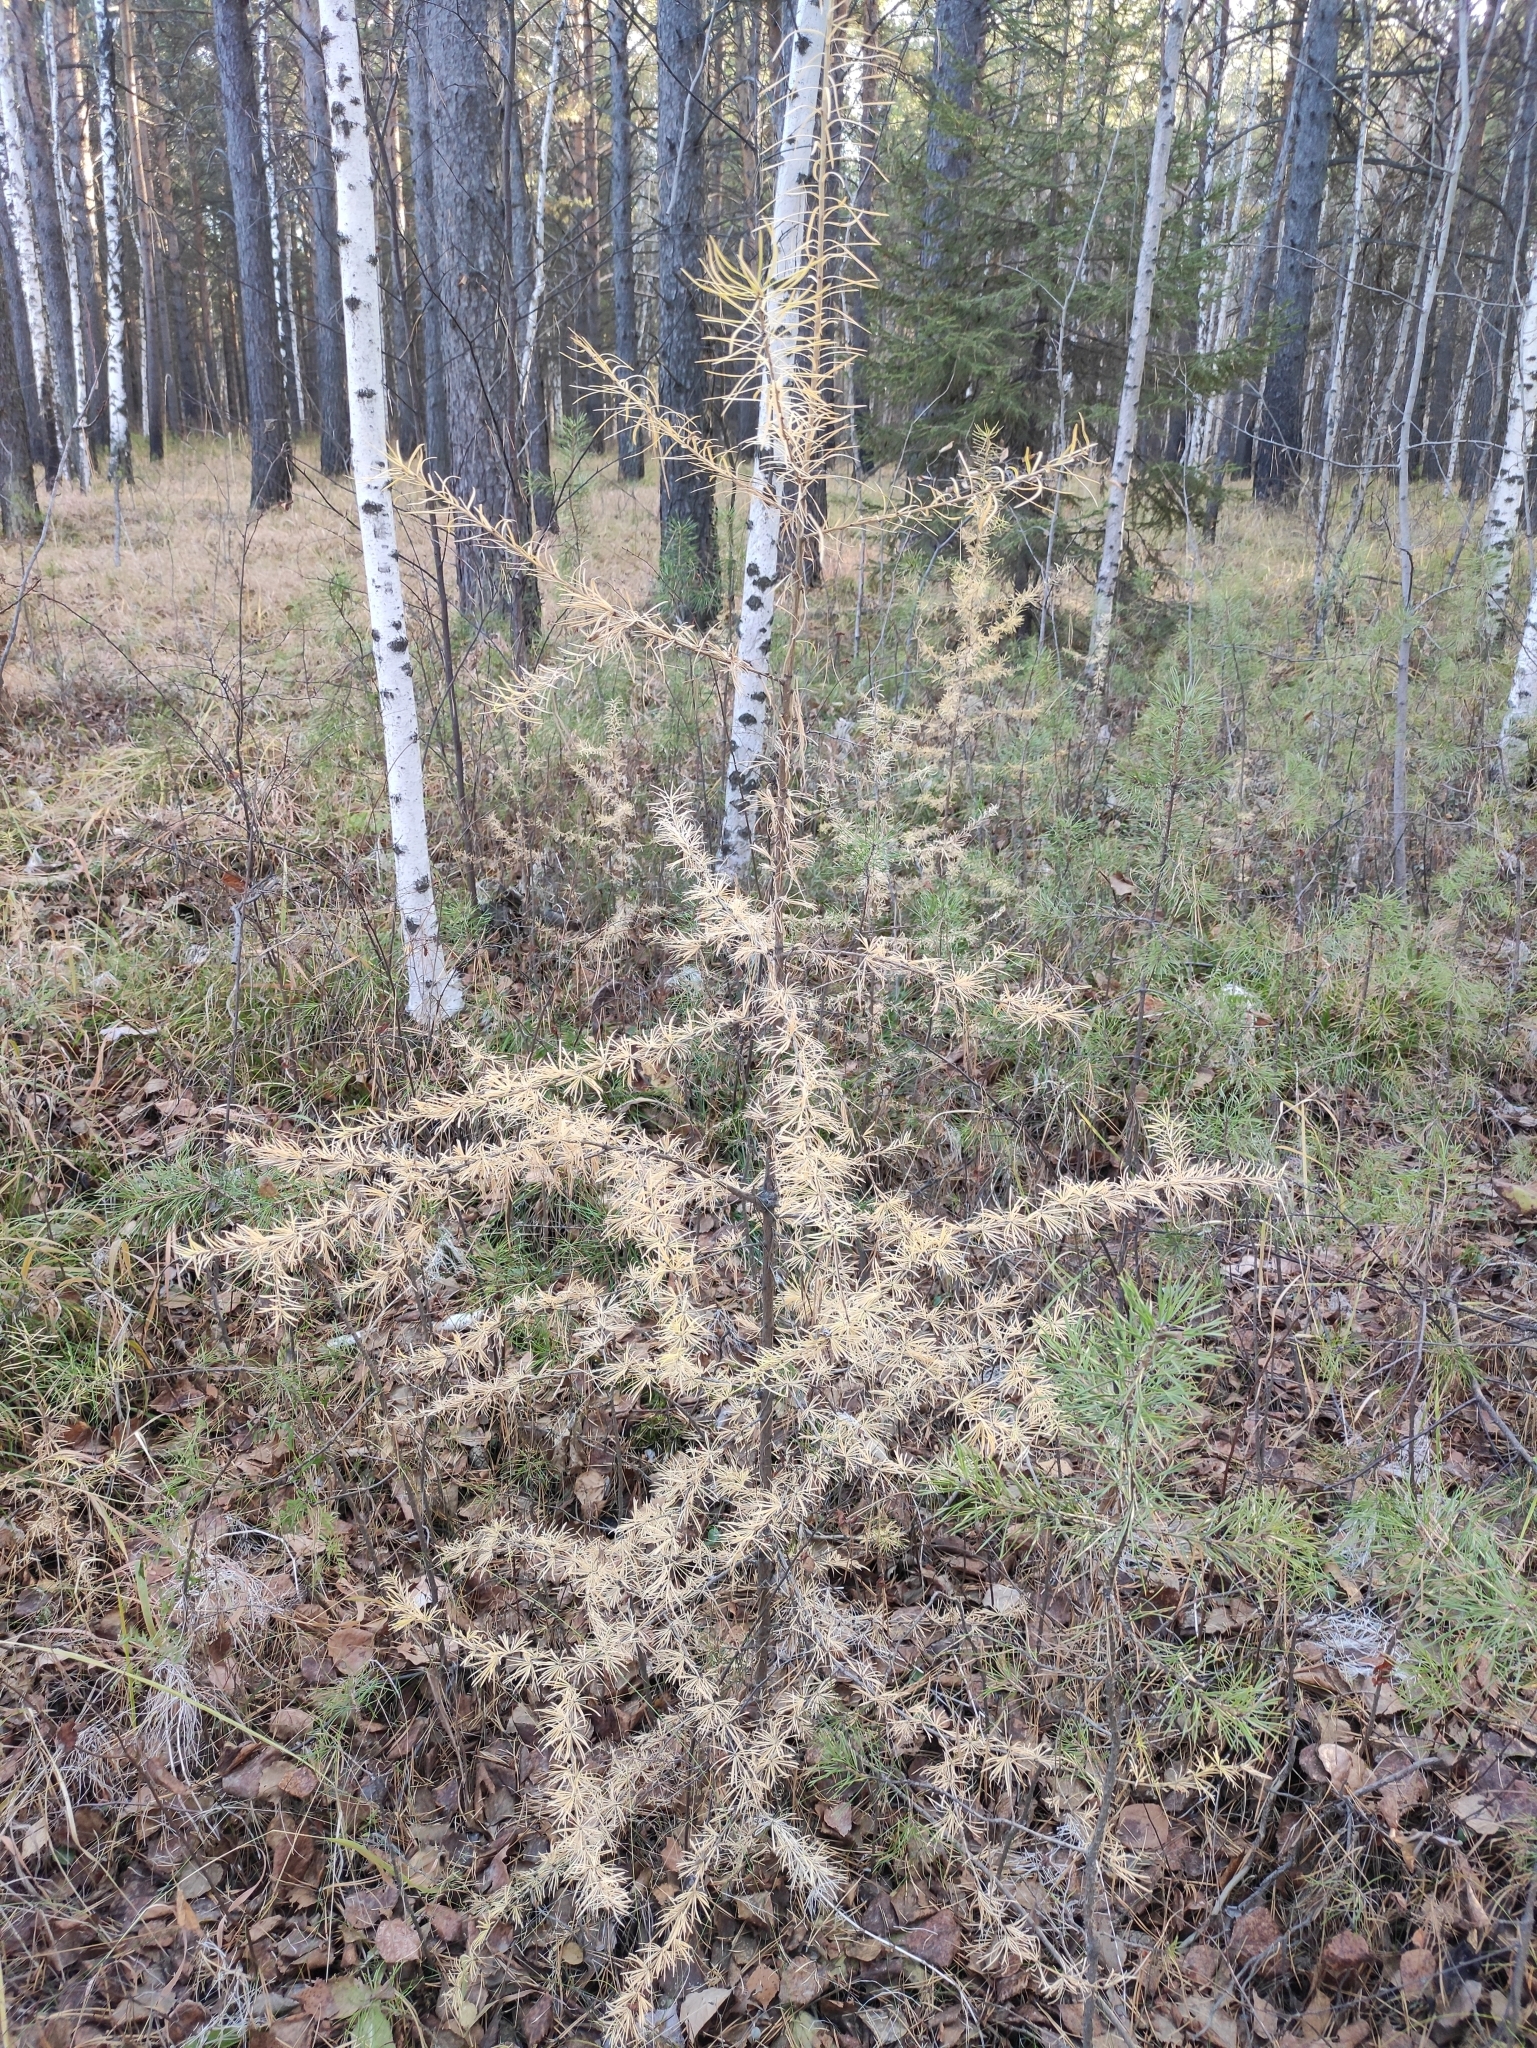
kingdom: Plantae
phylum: Tracheophyta
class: Pinopsida
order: Pinales
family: Pinaceae
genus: Larix
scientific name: Larix sibirica
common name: Siberian larch
